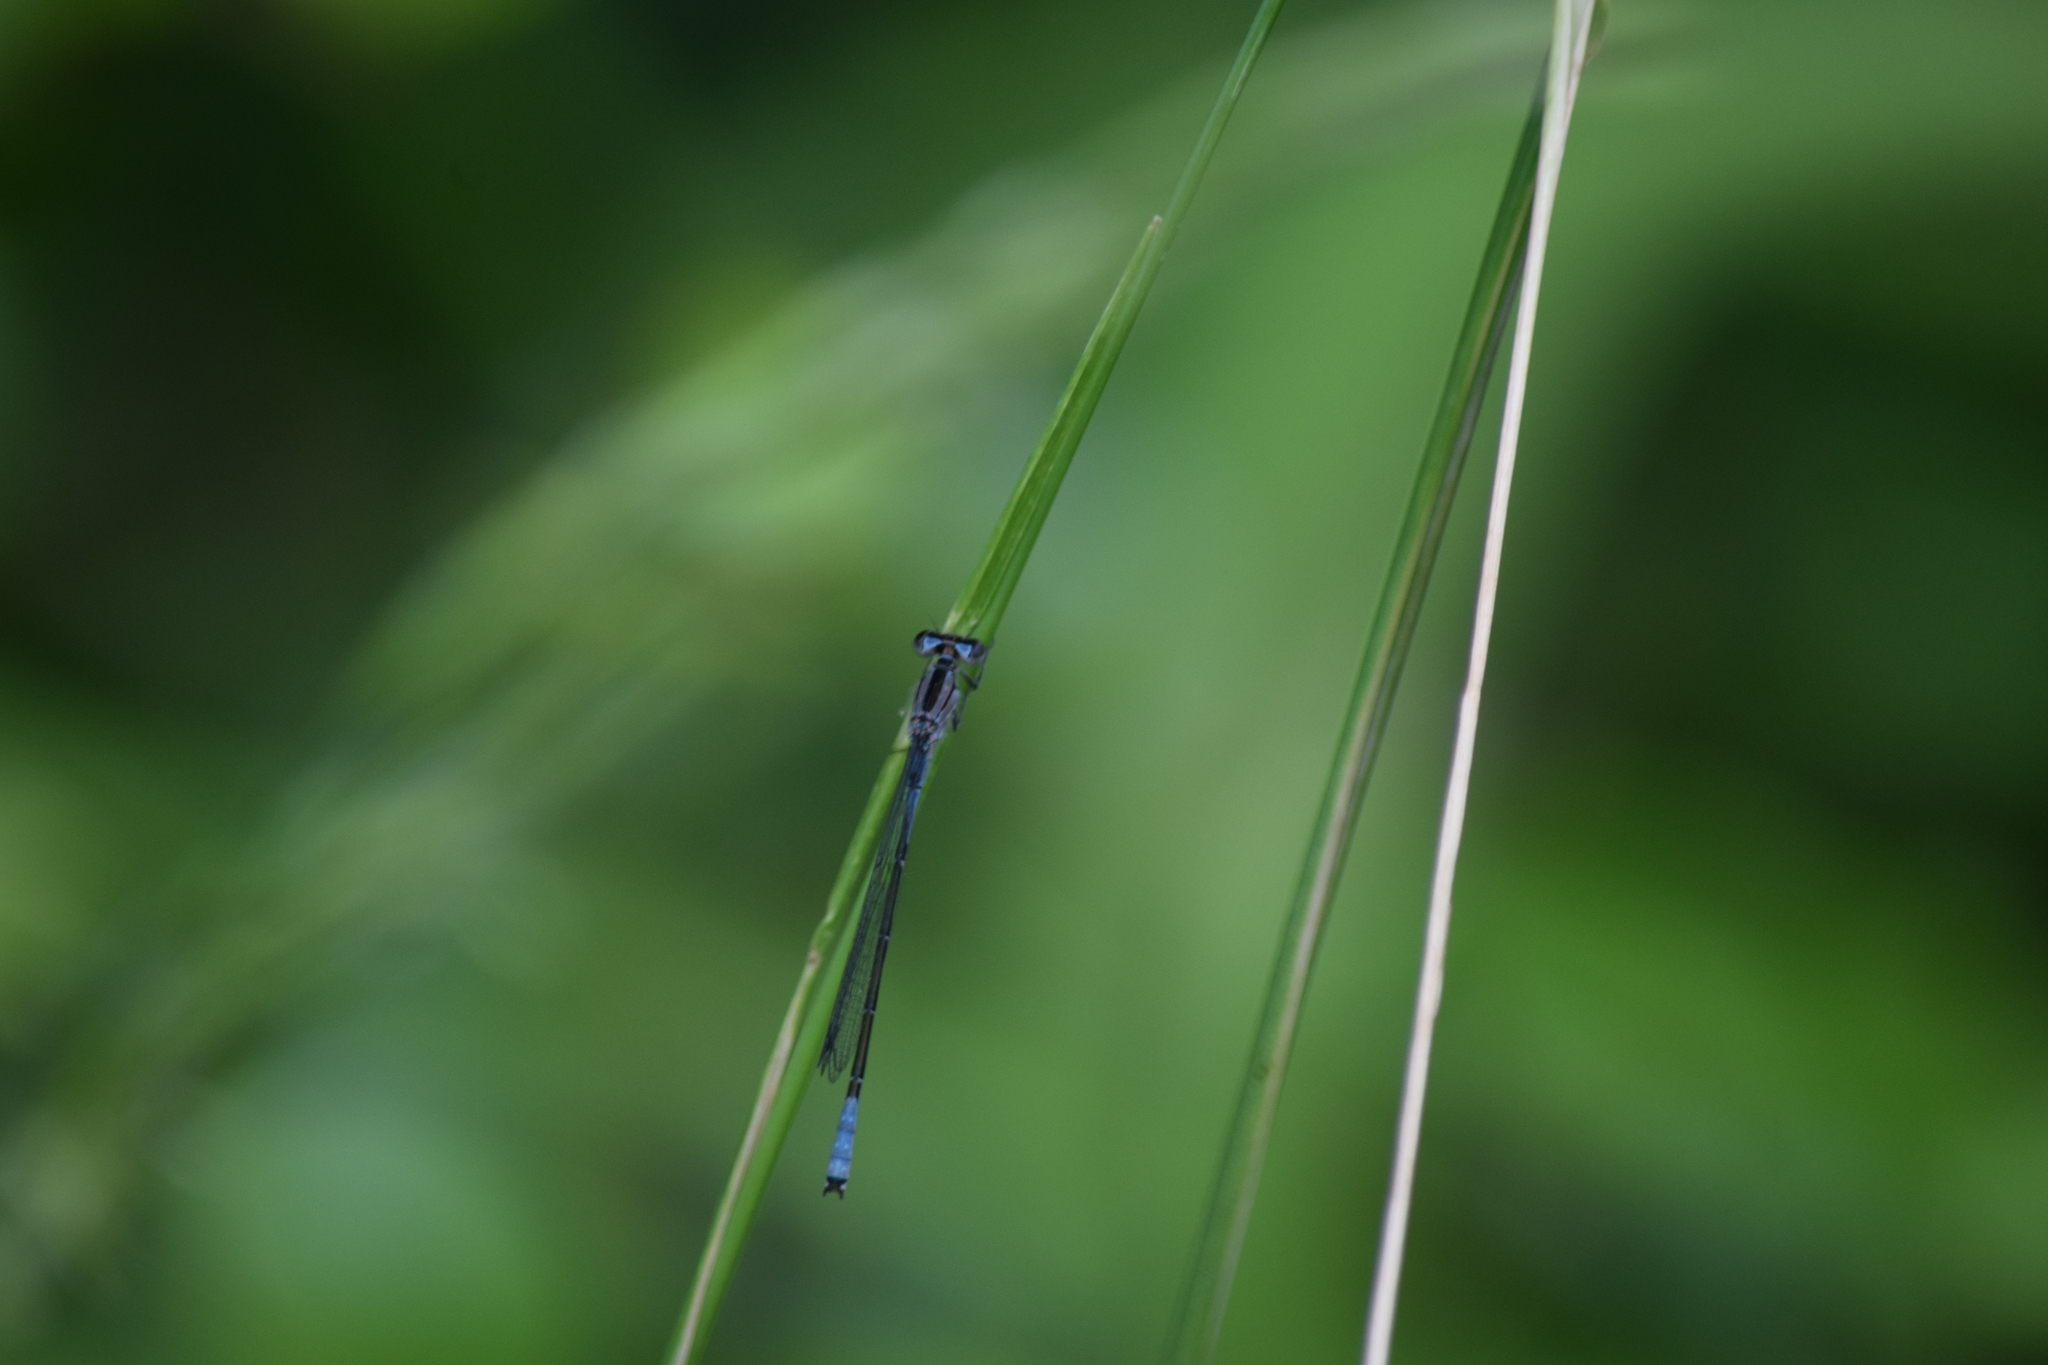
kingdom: Animalia
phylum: Arthropoda
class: Insecta
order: Odonata
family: Coenagrionidae
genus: Enallagma
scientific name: Enallagma aspersum
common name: Azure bluet
